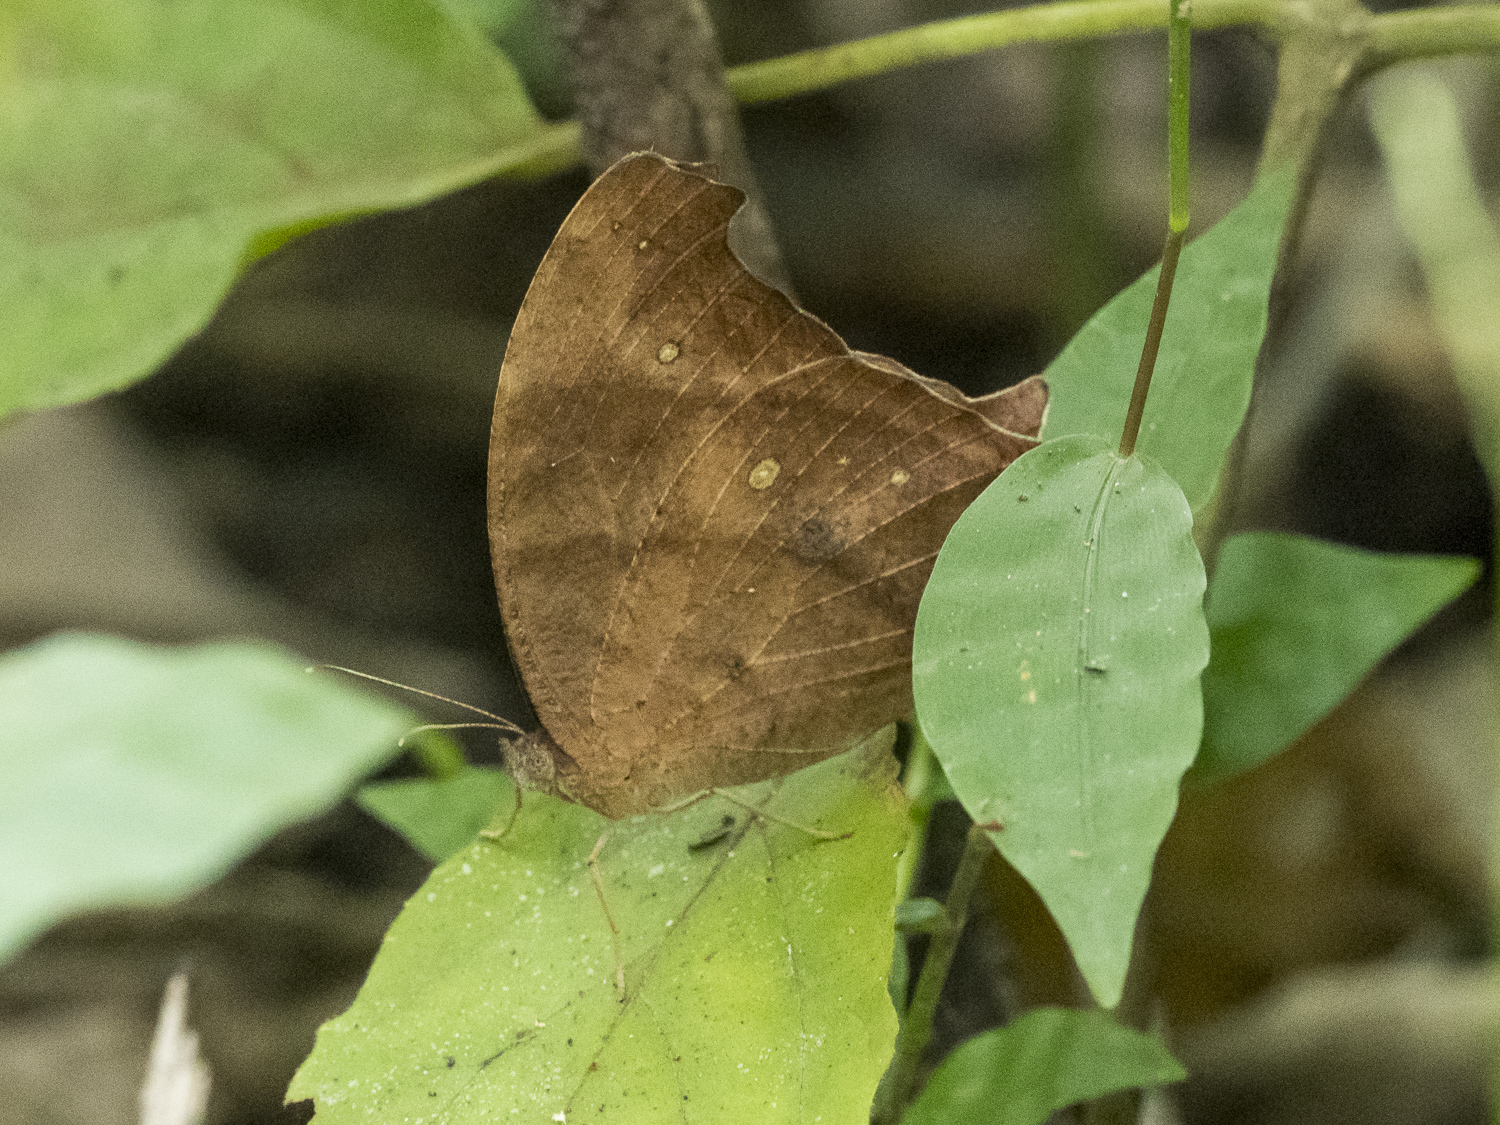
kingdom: Animalia
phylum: Arthropoda
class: Insecta
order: Lepidoptera
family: Nymphalidae
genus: Melanitis
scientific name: Melanitis phedima
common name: Dark evening brown
